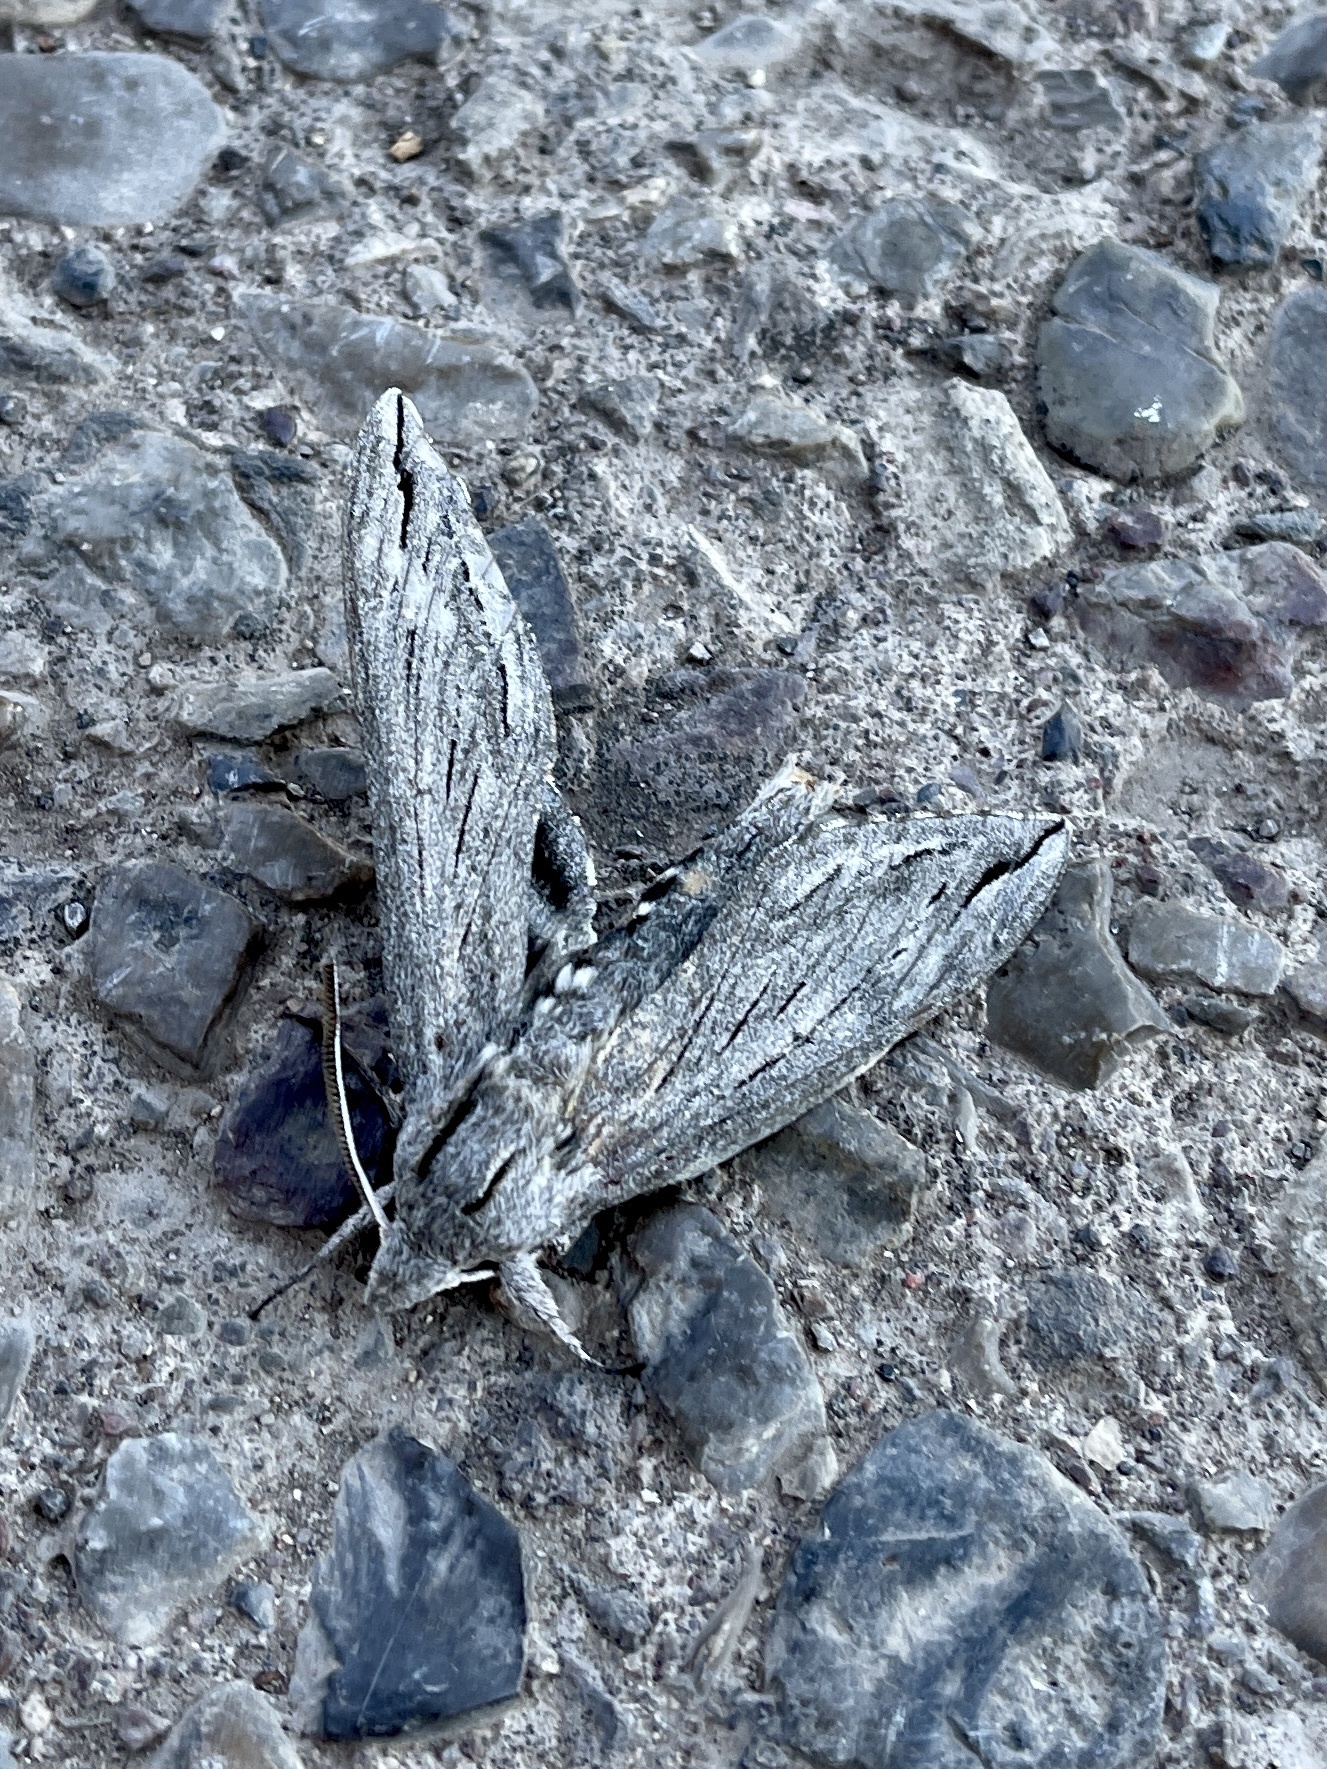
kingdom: Animalia
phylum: Arthropoda
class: Insecta
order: Lepidoptera
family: Sphingidae
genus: Sphinx
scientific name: Sphinx chersis
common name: Great ash sphinx
